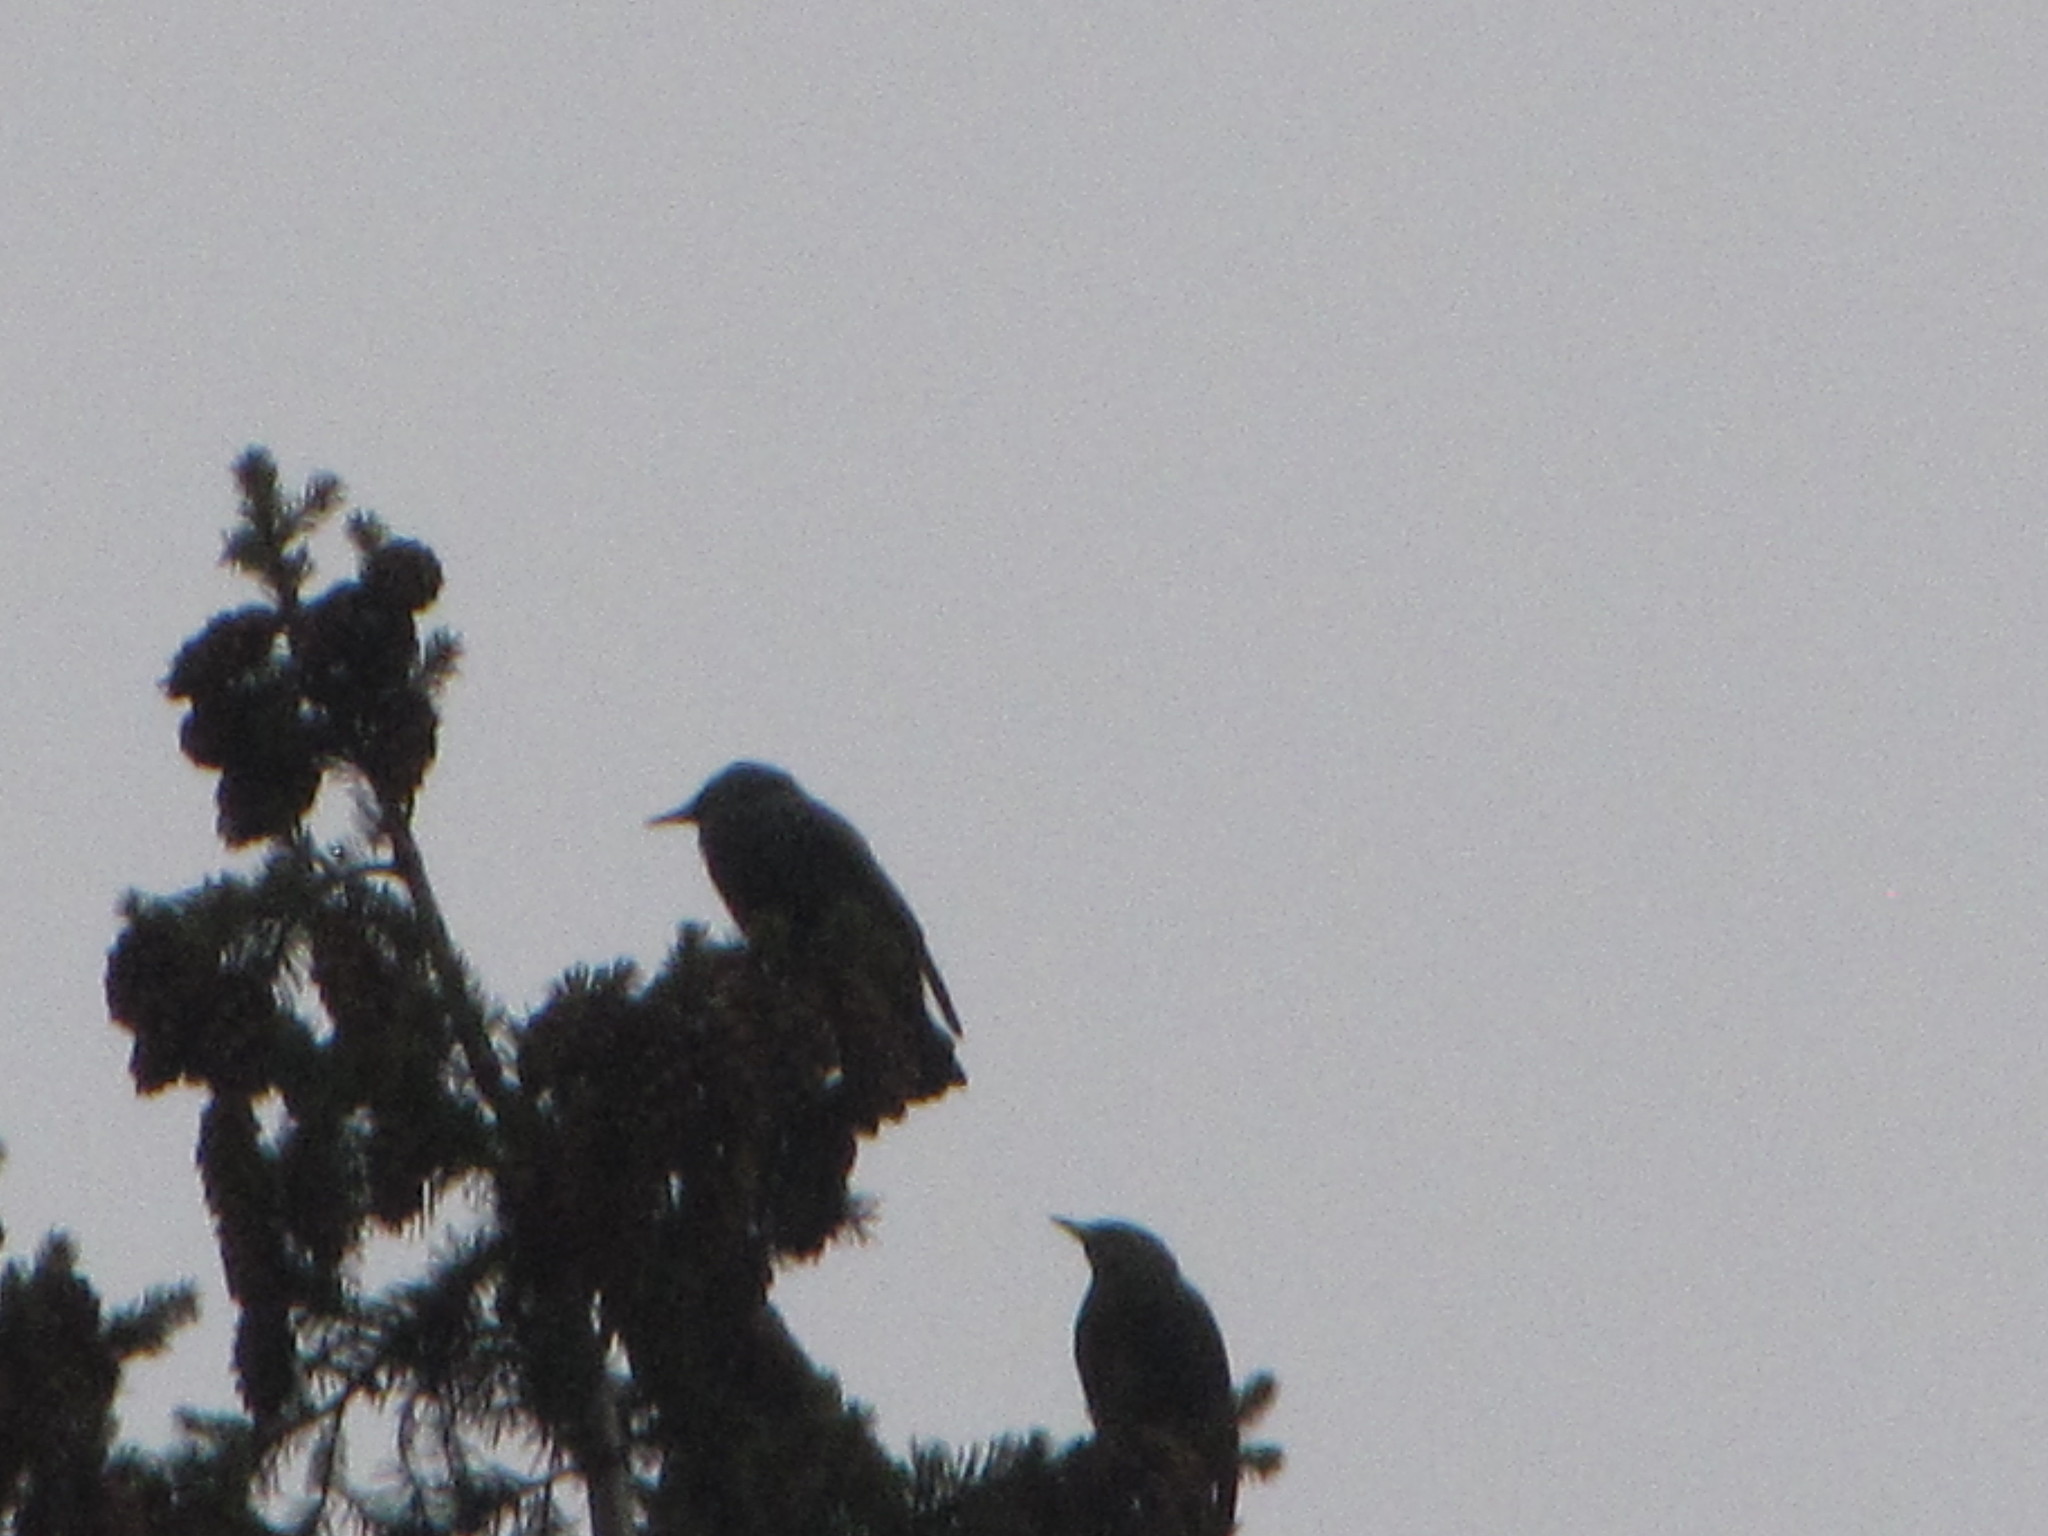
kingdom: Animalia
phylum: Chordata
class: Aves
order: Passeriformes
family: Sturnidae
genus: Sturnus
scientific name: Sturnus vulgaris
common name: Common starling
